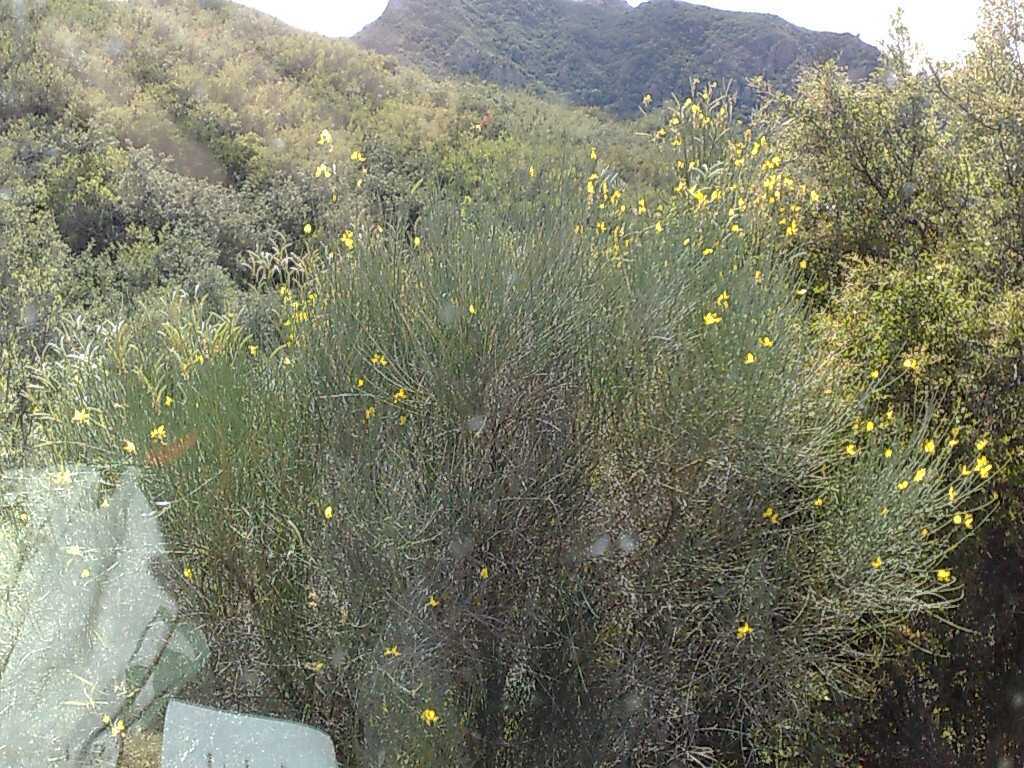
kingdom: Plantae
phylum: Tracheophyta
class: Magnoliopsida
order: Fabales
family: Fabaceae
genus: Spartium
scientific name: Spartium junceum
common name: Spanish broom
